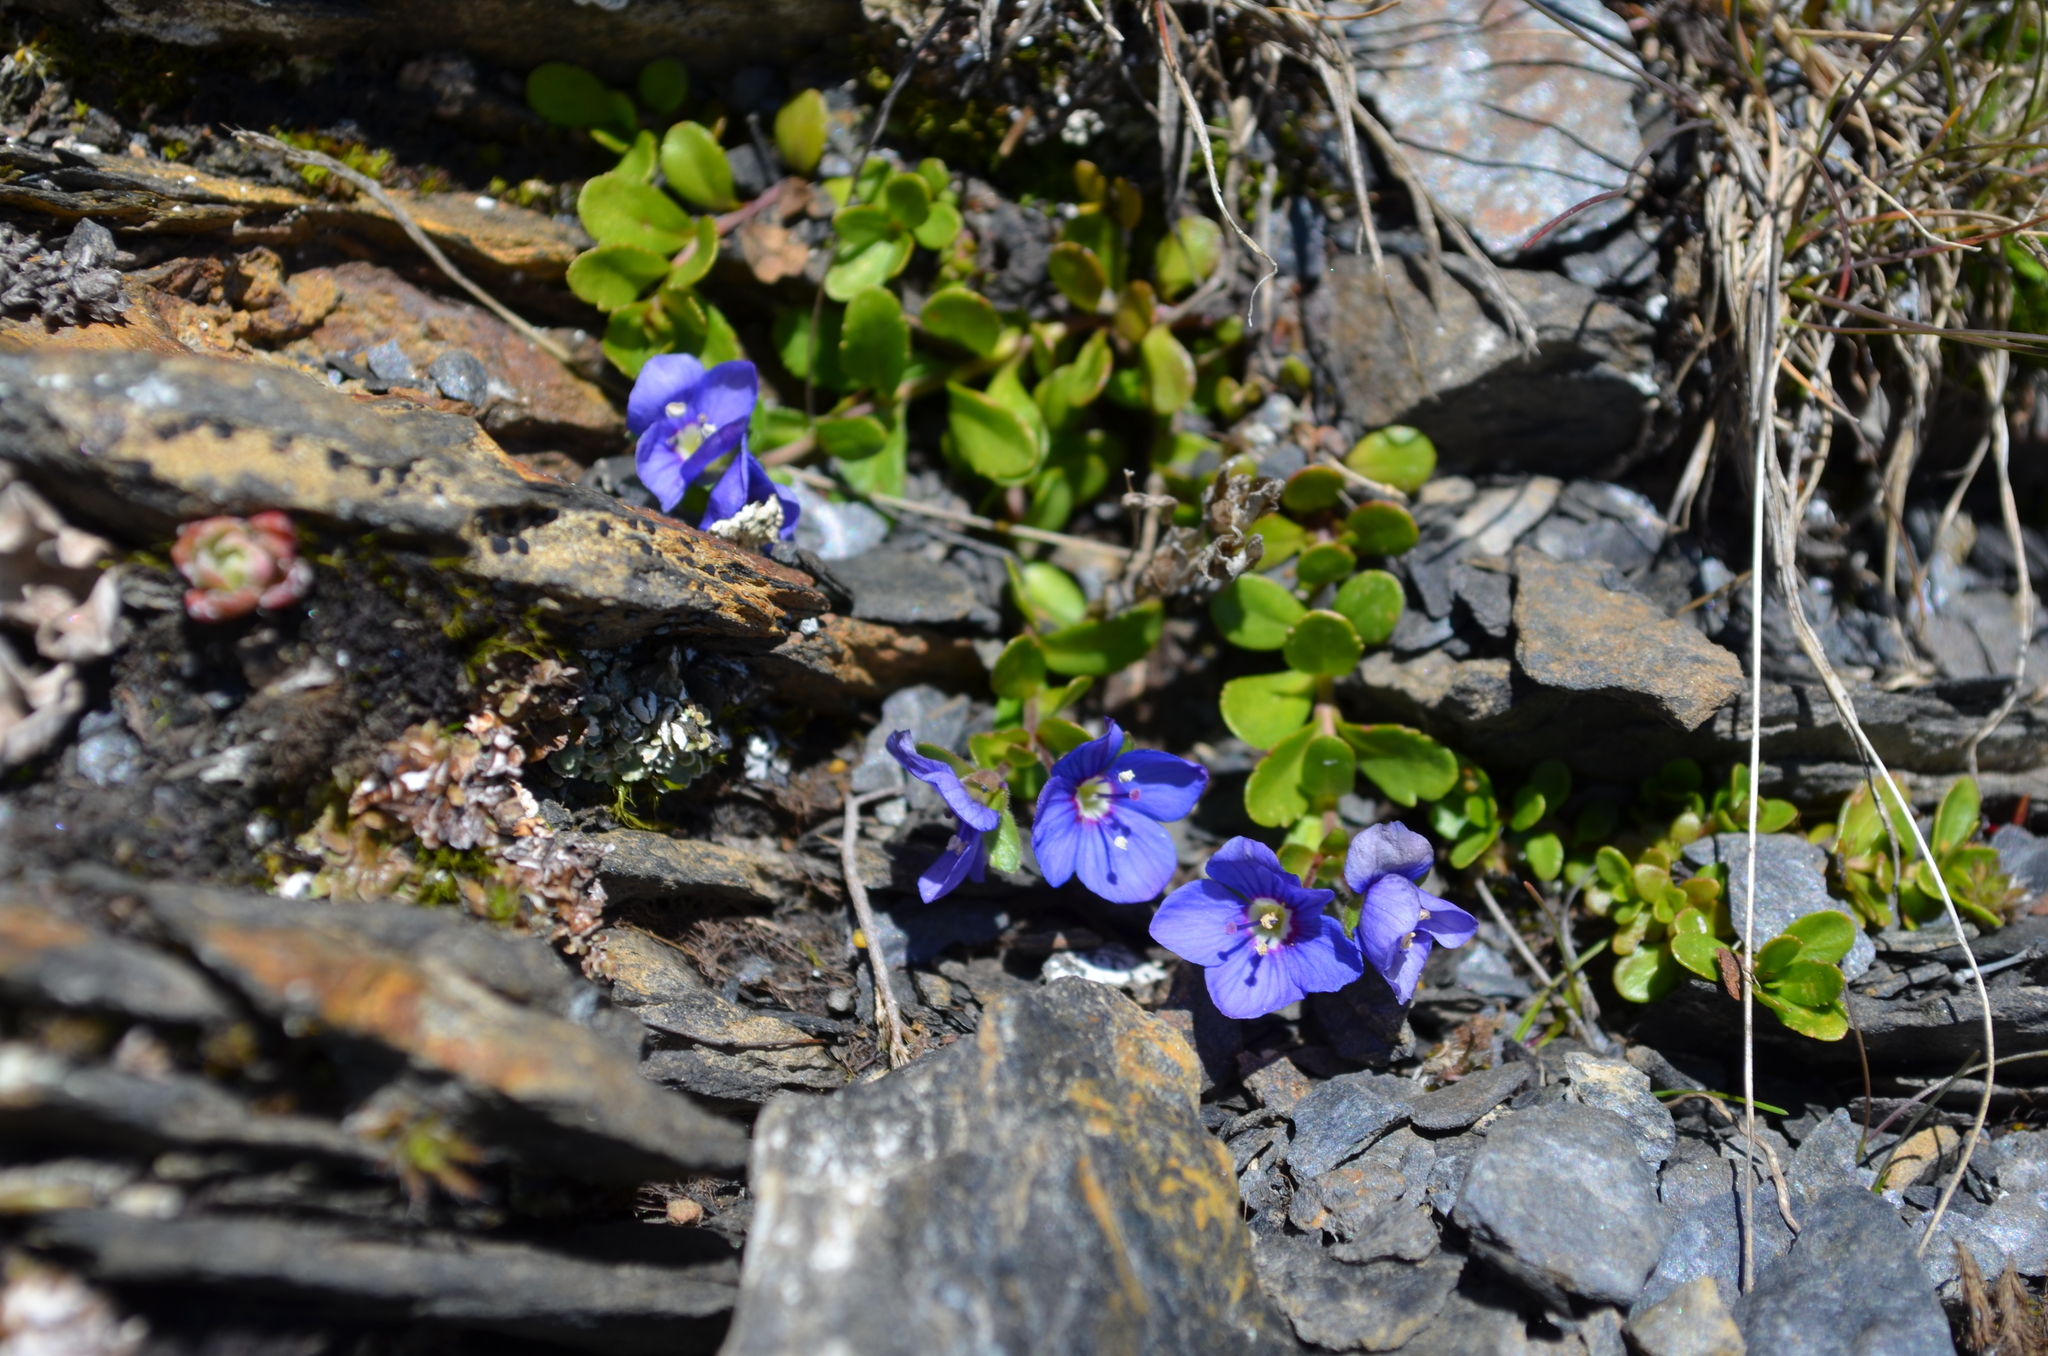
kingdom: Plantae
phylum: Tracheophyta
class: Magnoliopsida
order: Lamiales
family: Plantaginaceae
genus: Veronica
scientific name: Veronica fruticans
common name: Rock speedwell
